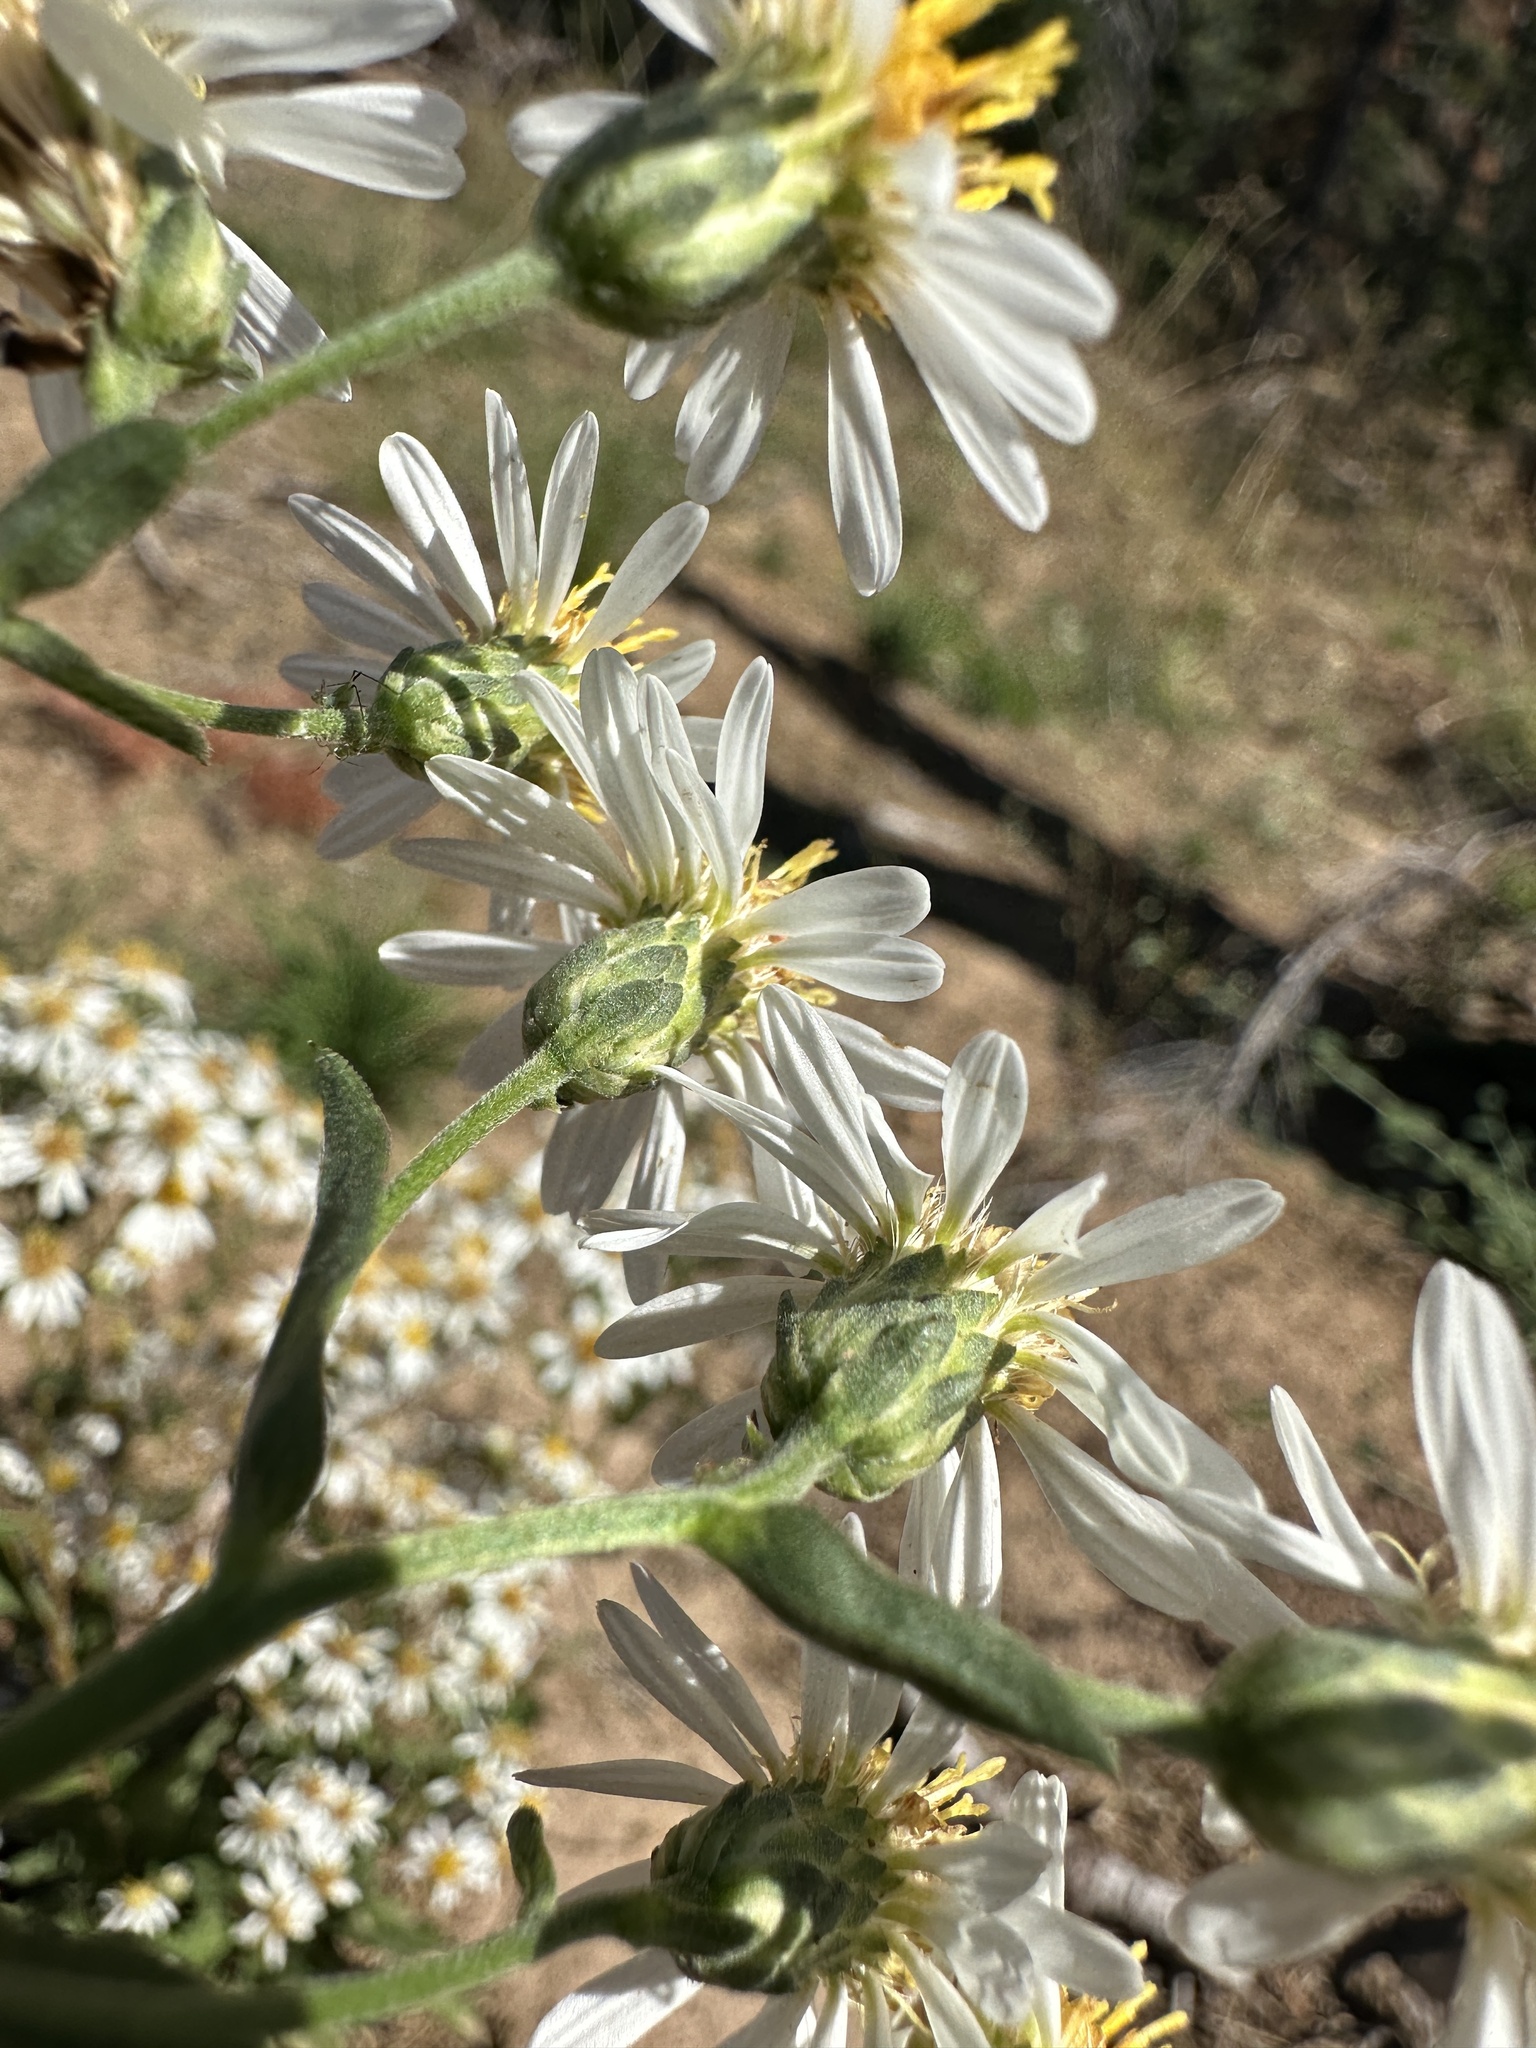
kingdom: Plantae
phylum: Tracheophyta
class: Magnoliopsida
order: Asterales
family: Asteraceae
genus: Eurybia
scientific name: Eurybia radulina
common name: Rough-leaved aster
